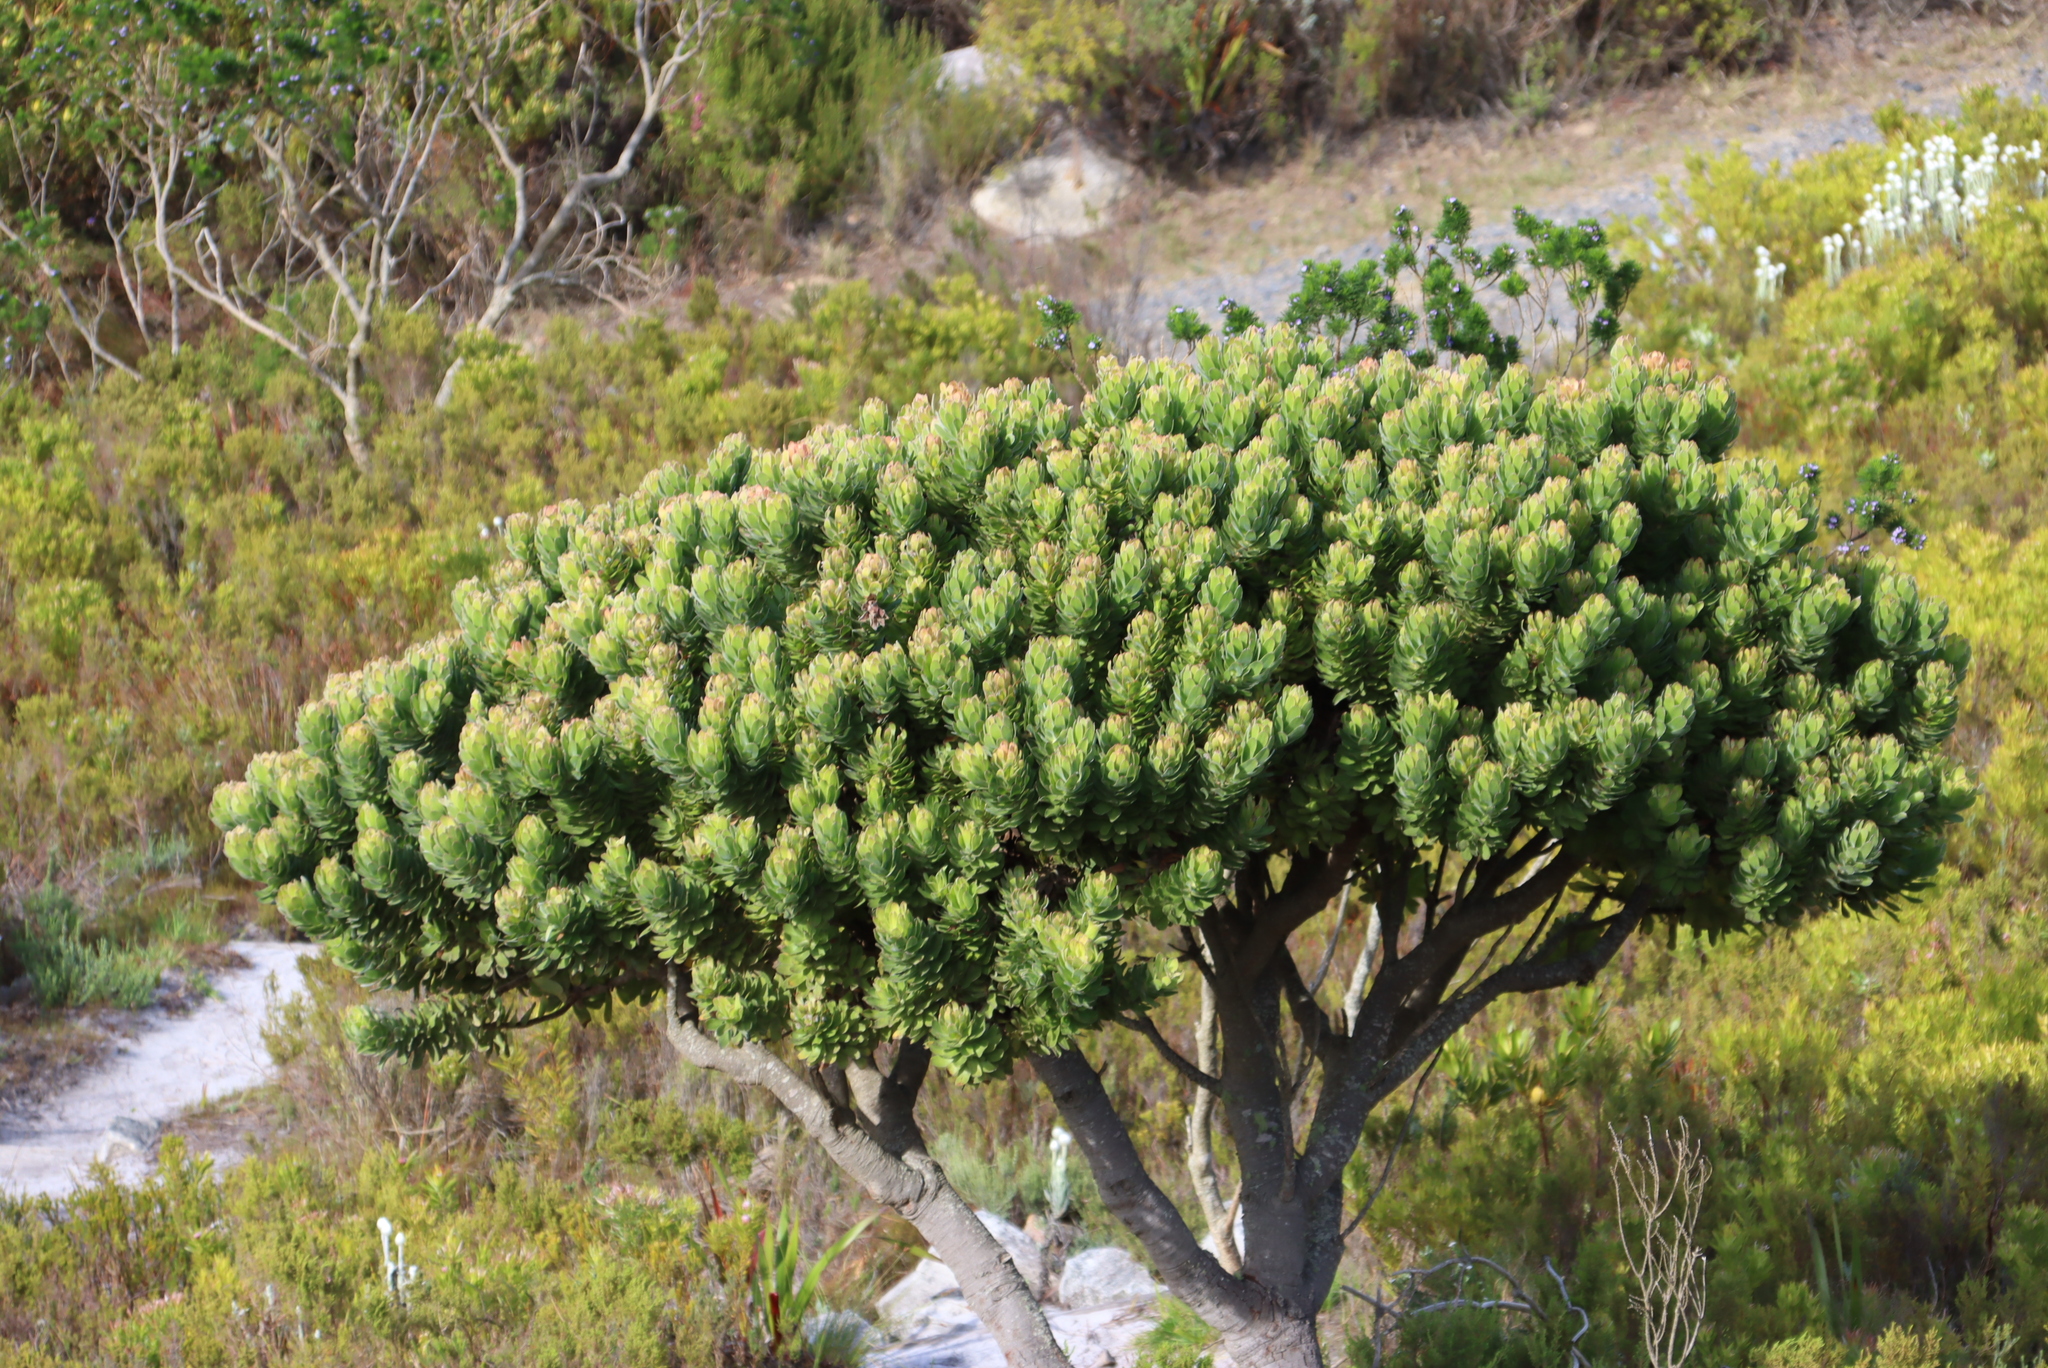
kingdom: Plantae
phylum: Tracheophyta
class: Magnoliopsida
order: Proteales
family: Proteaceae
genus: Mimetes
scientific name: Mimetes fimbriifolius
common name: Fringed bottlebrush
